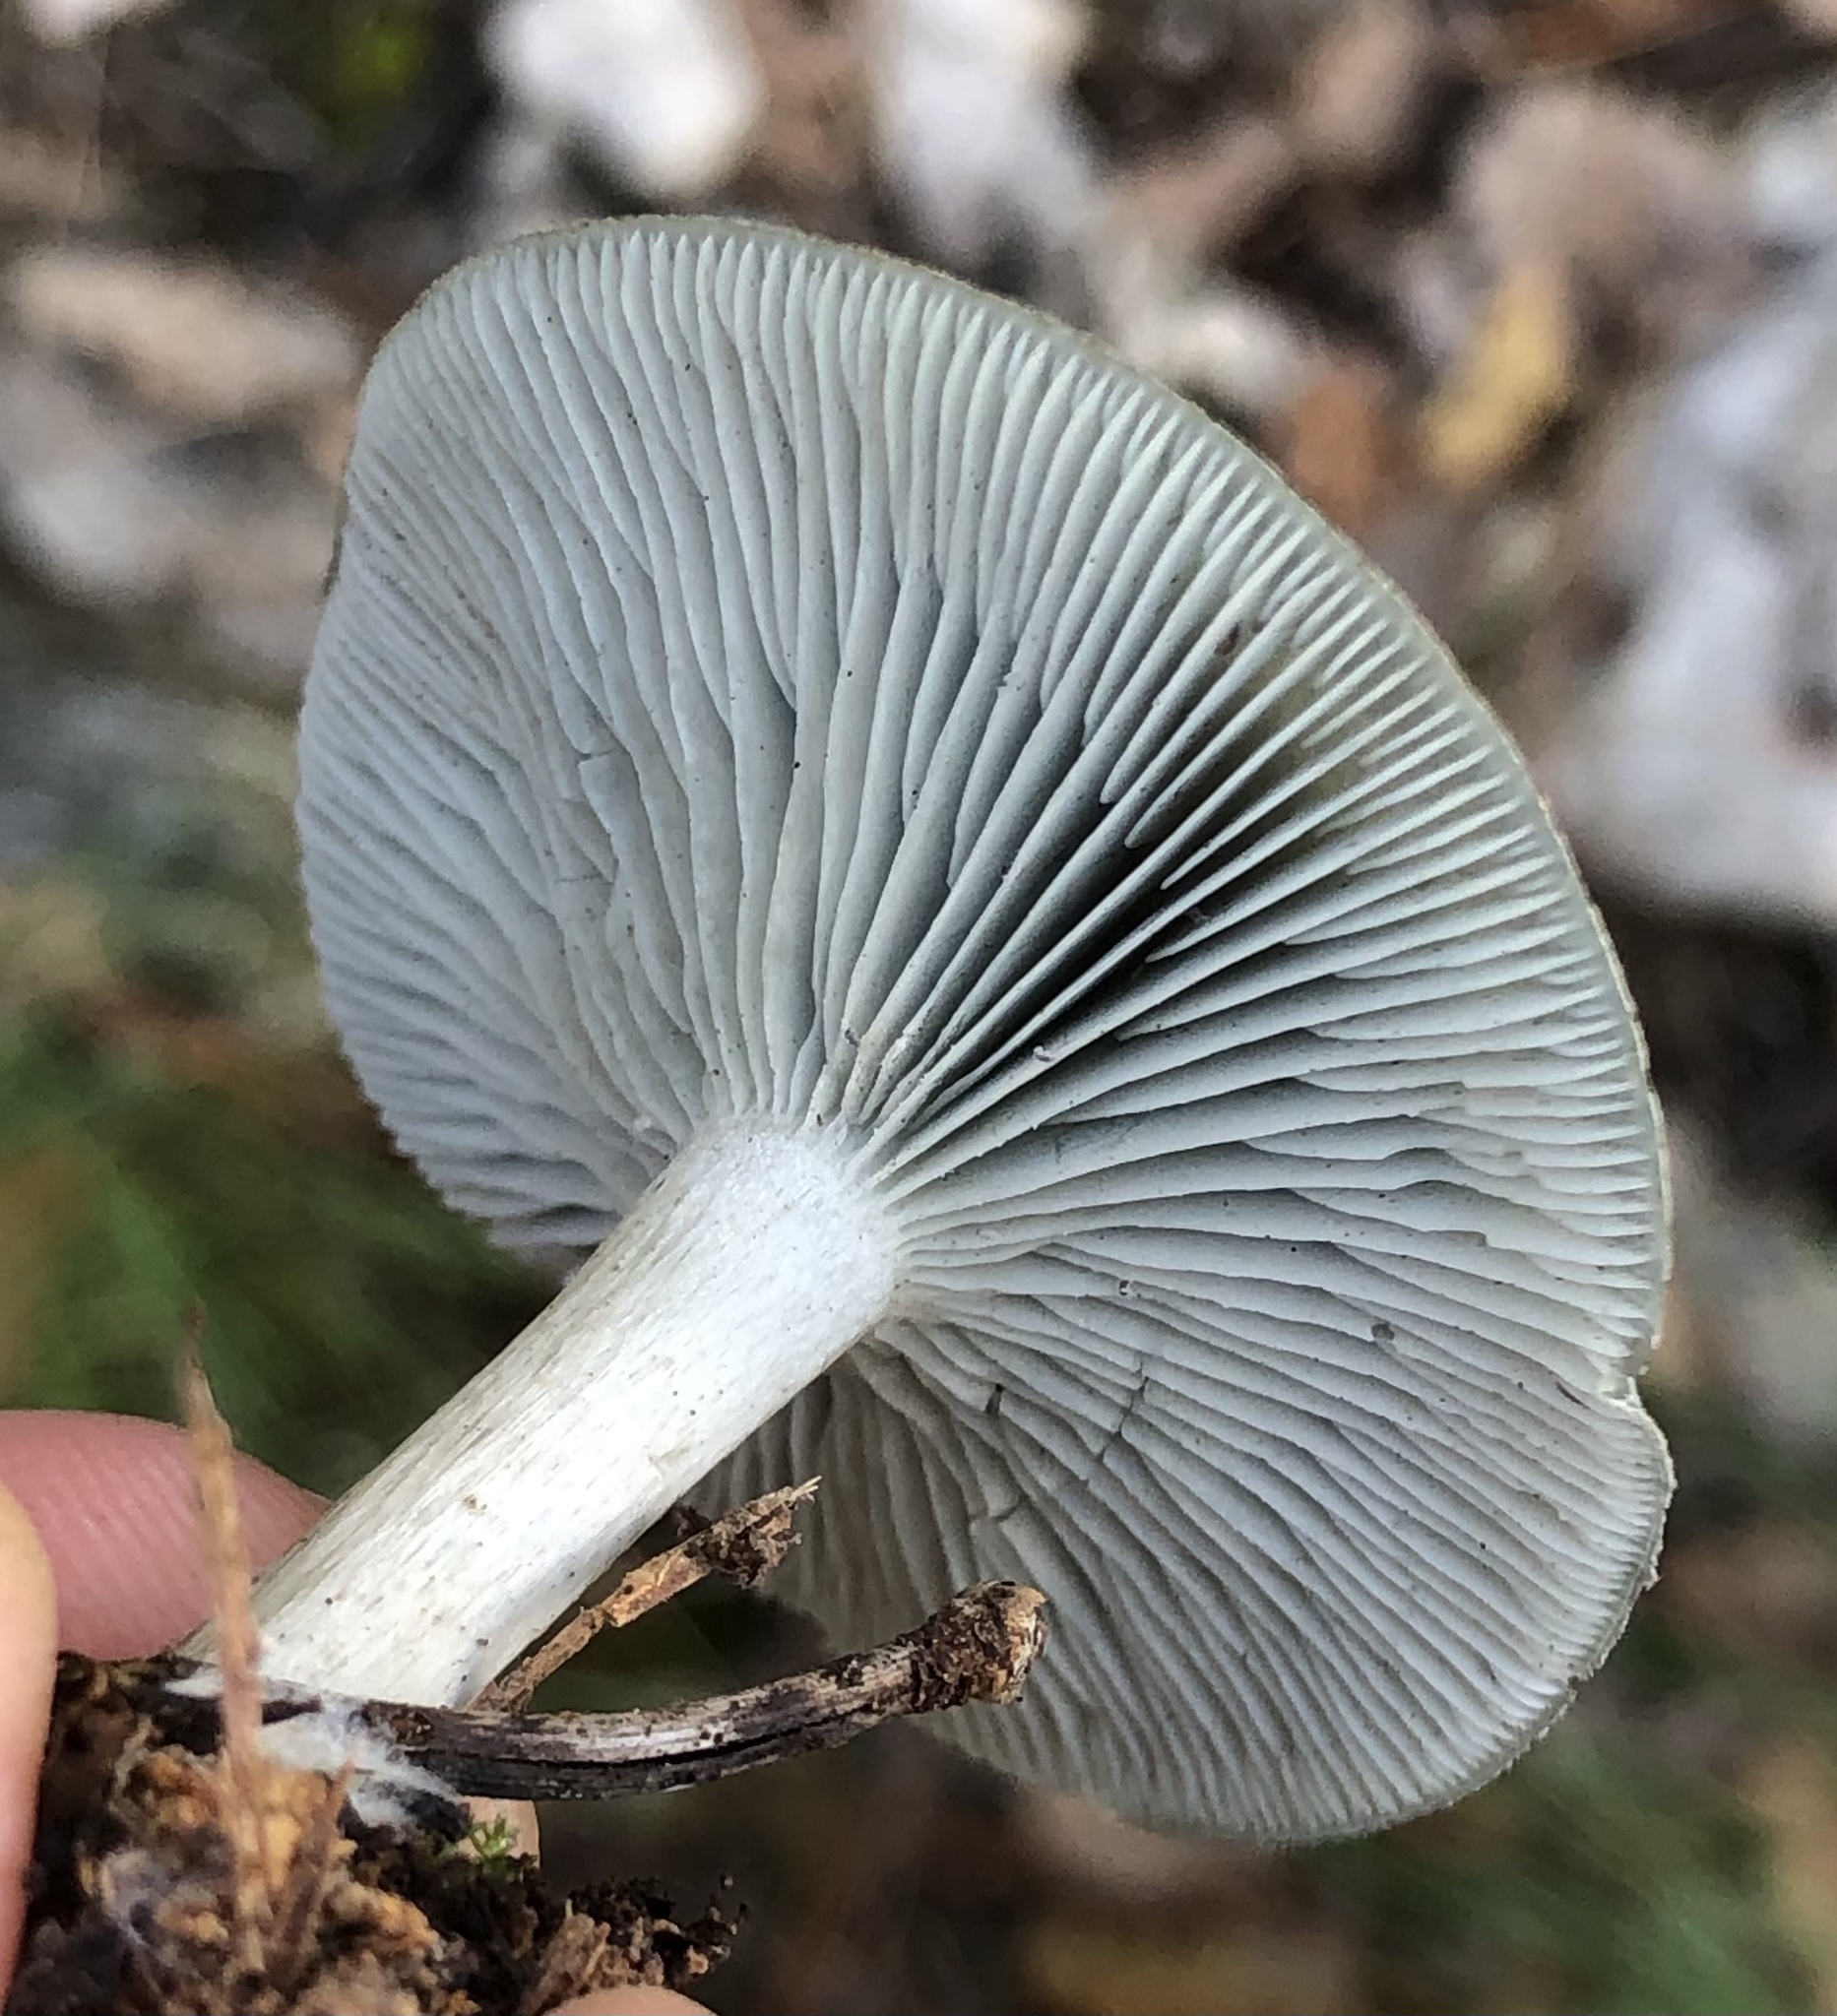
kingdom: Fungi
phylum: Basidiomycota
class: Agaricomycetes
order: Agaricales
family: Tricholomataceae
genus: Collybia
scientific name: Collybia
